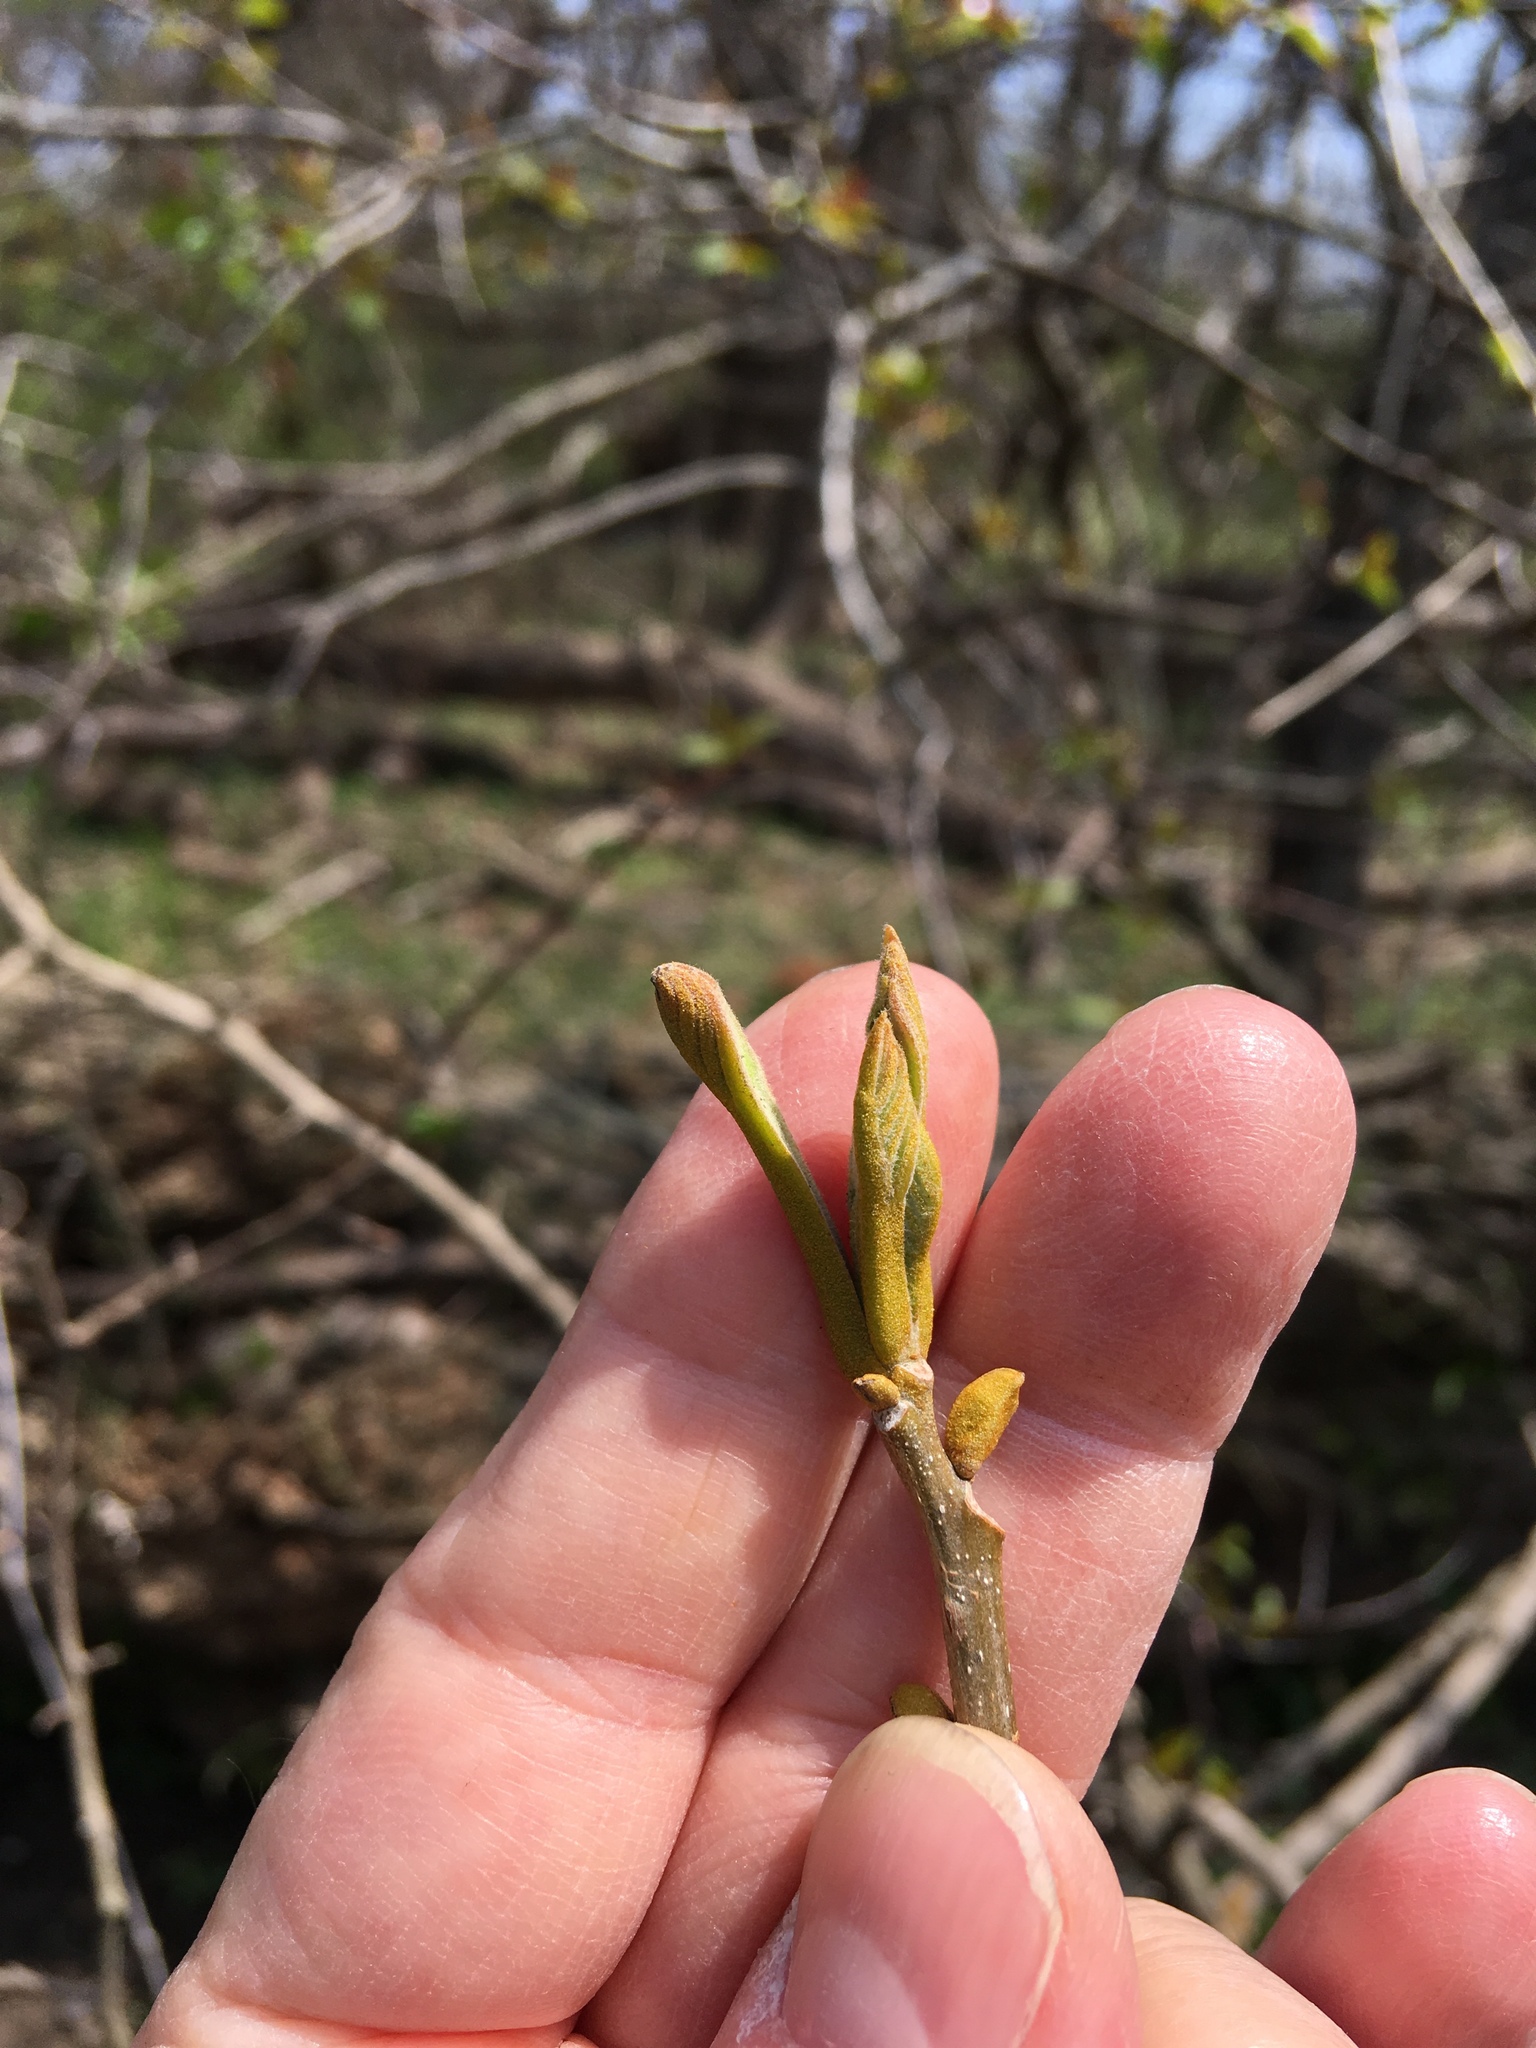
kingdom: Plantae
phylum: Tracheophyta
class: Magnoliopsida
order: Fagales
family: Juglandaceae
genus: Carya
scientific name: Carya cordiformis
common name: Bitternut hickory
